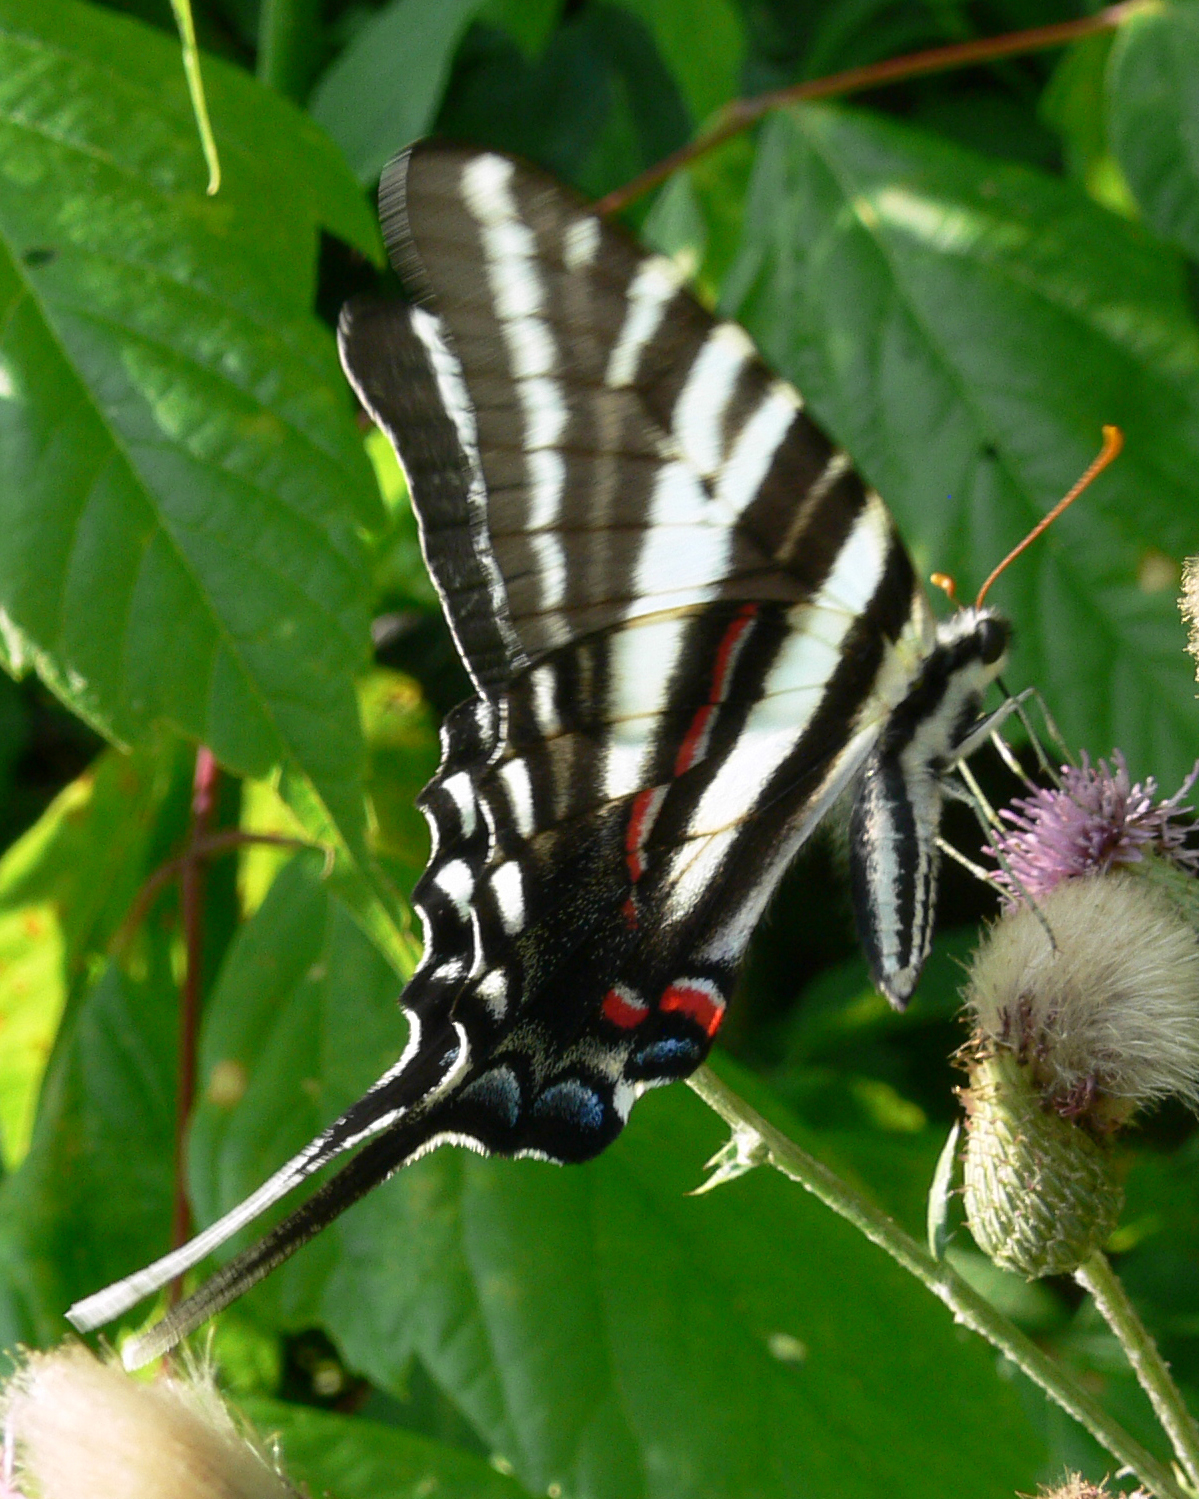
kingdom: Animalia
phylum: Arthropoda
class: Insecta
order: Lepidoptera
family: Papilionidae
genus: Protographium
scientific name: Protographium marcellus
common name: Zebra swallowtail
